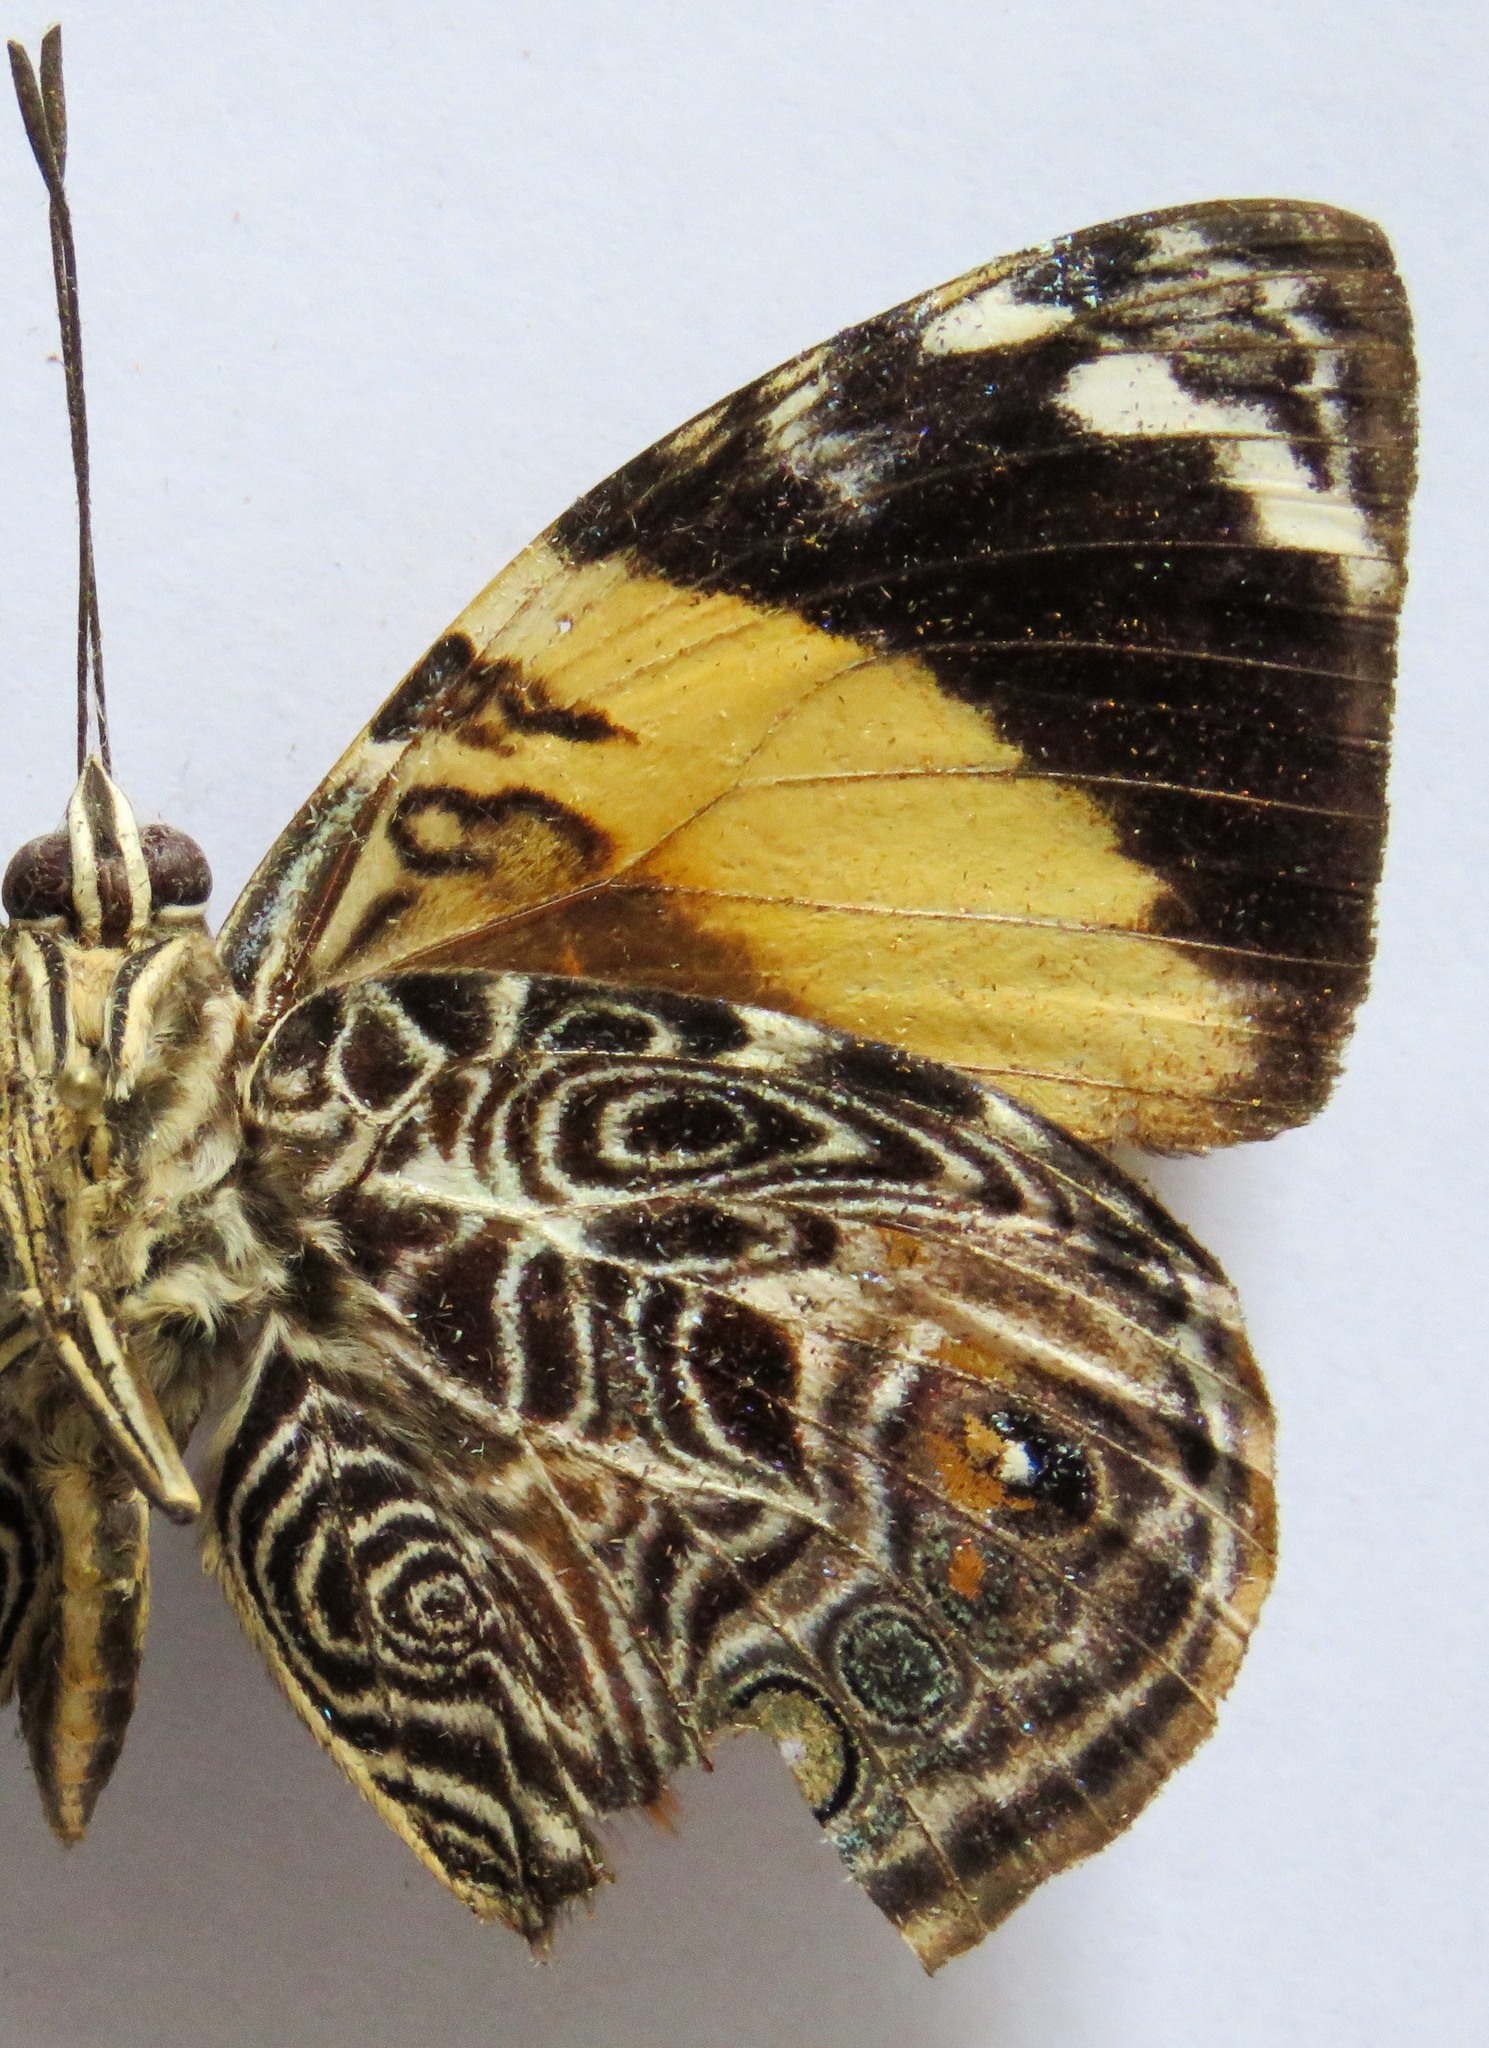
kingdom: Animalia
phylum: Arthropoda
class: Insecta
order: Lepidoptera
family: Nymphalidae
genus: Smyrna
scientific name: Smyrna blomfildia
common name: Blomfild's beauty
